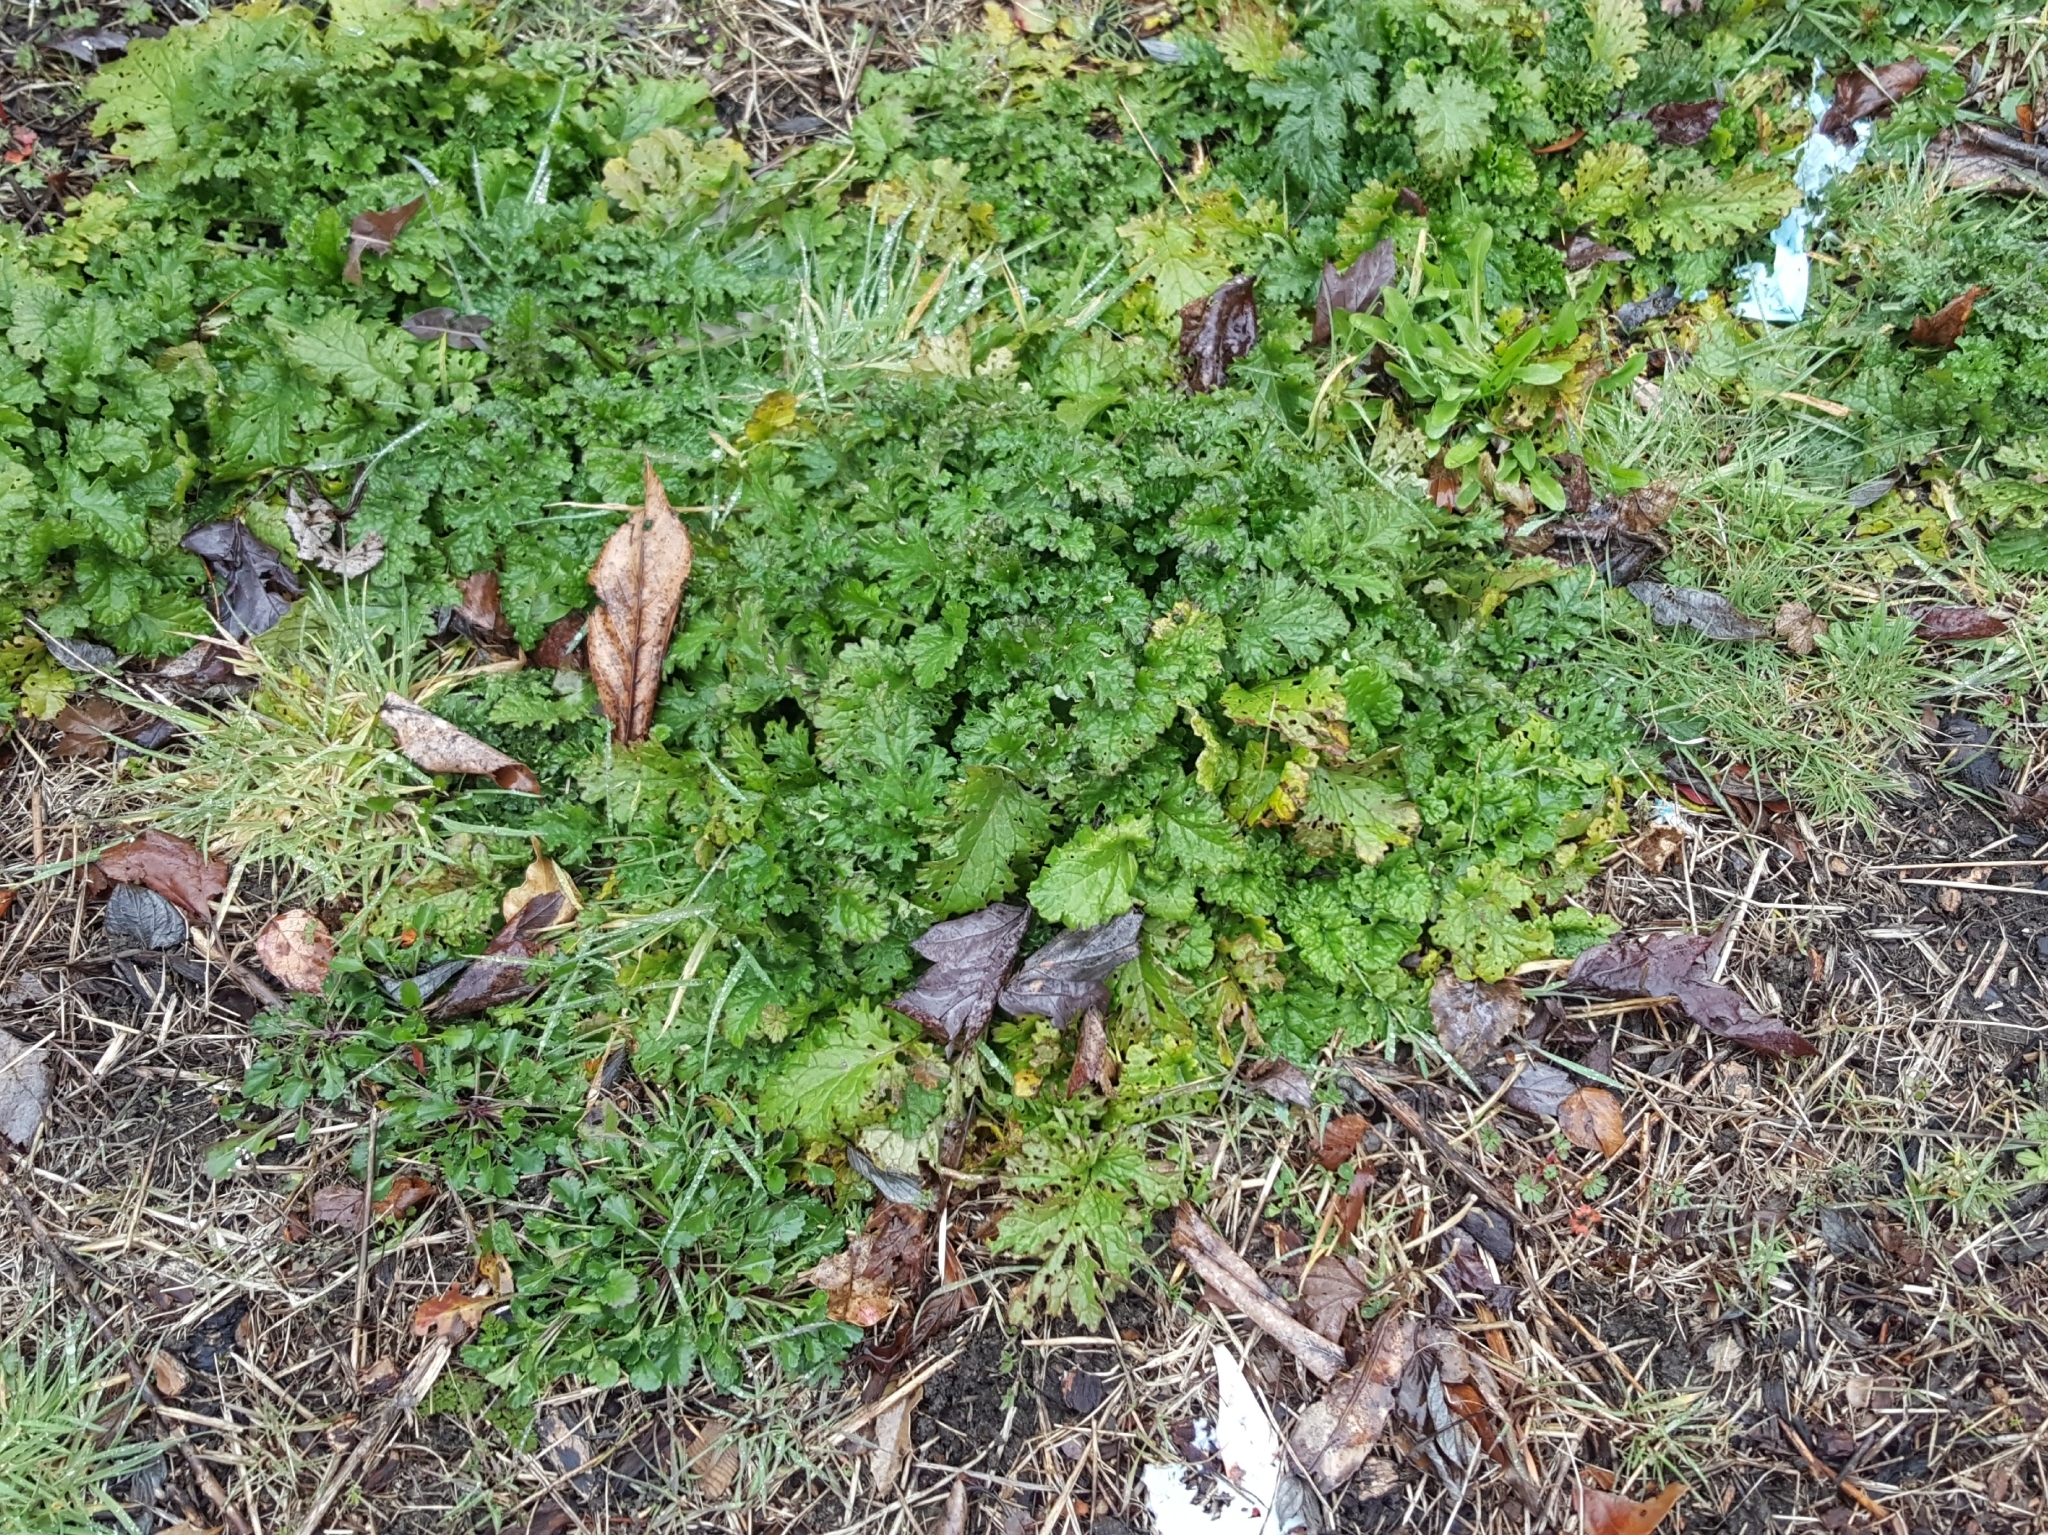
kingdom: Plantae
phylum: Tracheophyta
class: Magnoliopsida
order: Asterales
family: Asteraceae
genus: Jacobaea
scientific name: Jacobaea vulgaris
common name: Stinking willie
